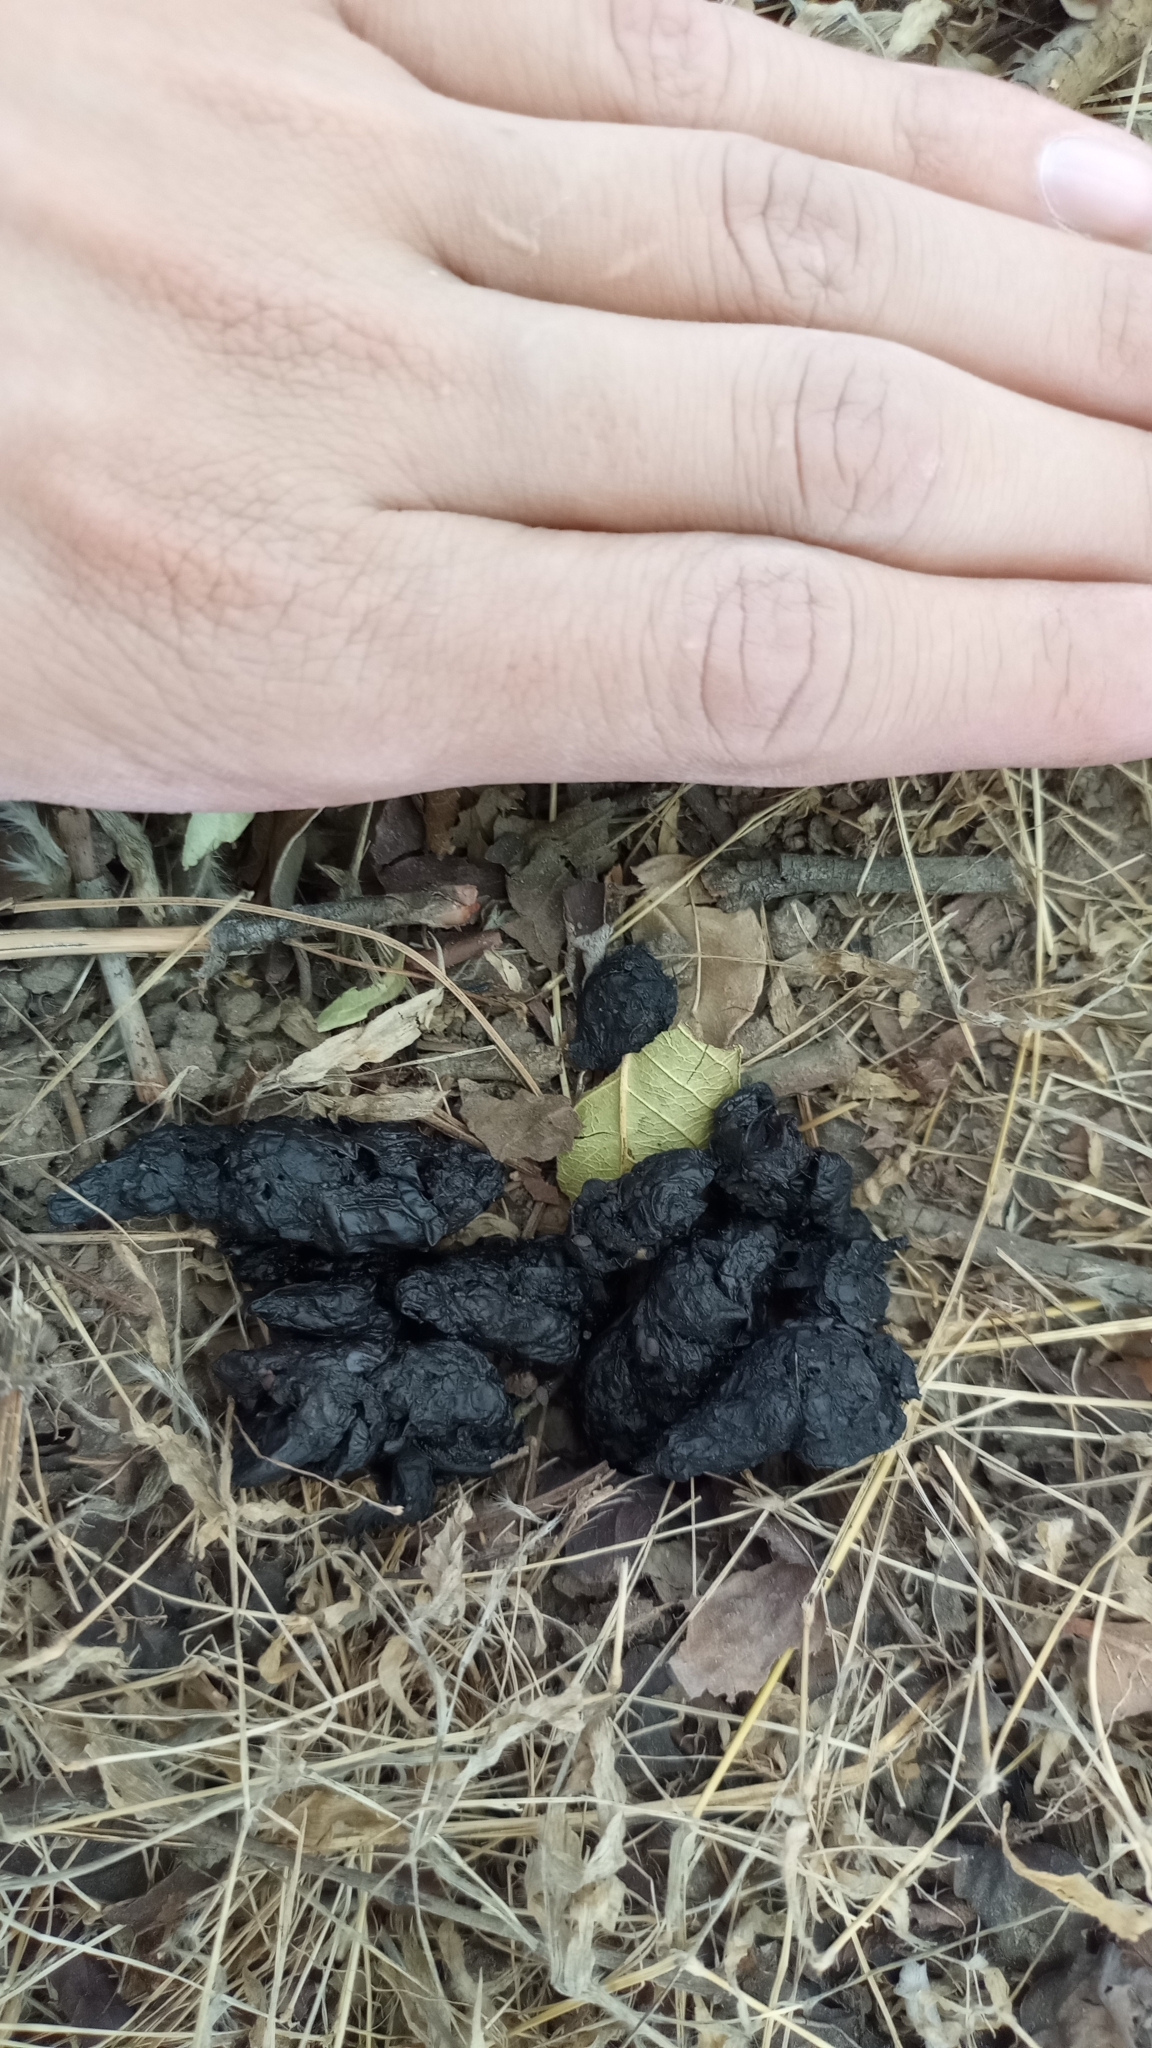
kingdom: Animalia
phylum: Chordata
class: Mammalia
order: Carnivora
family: Canidae
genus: Urocyon
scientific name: Urocyon cinereoargenteus
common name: Gray fox
